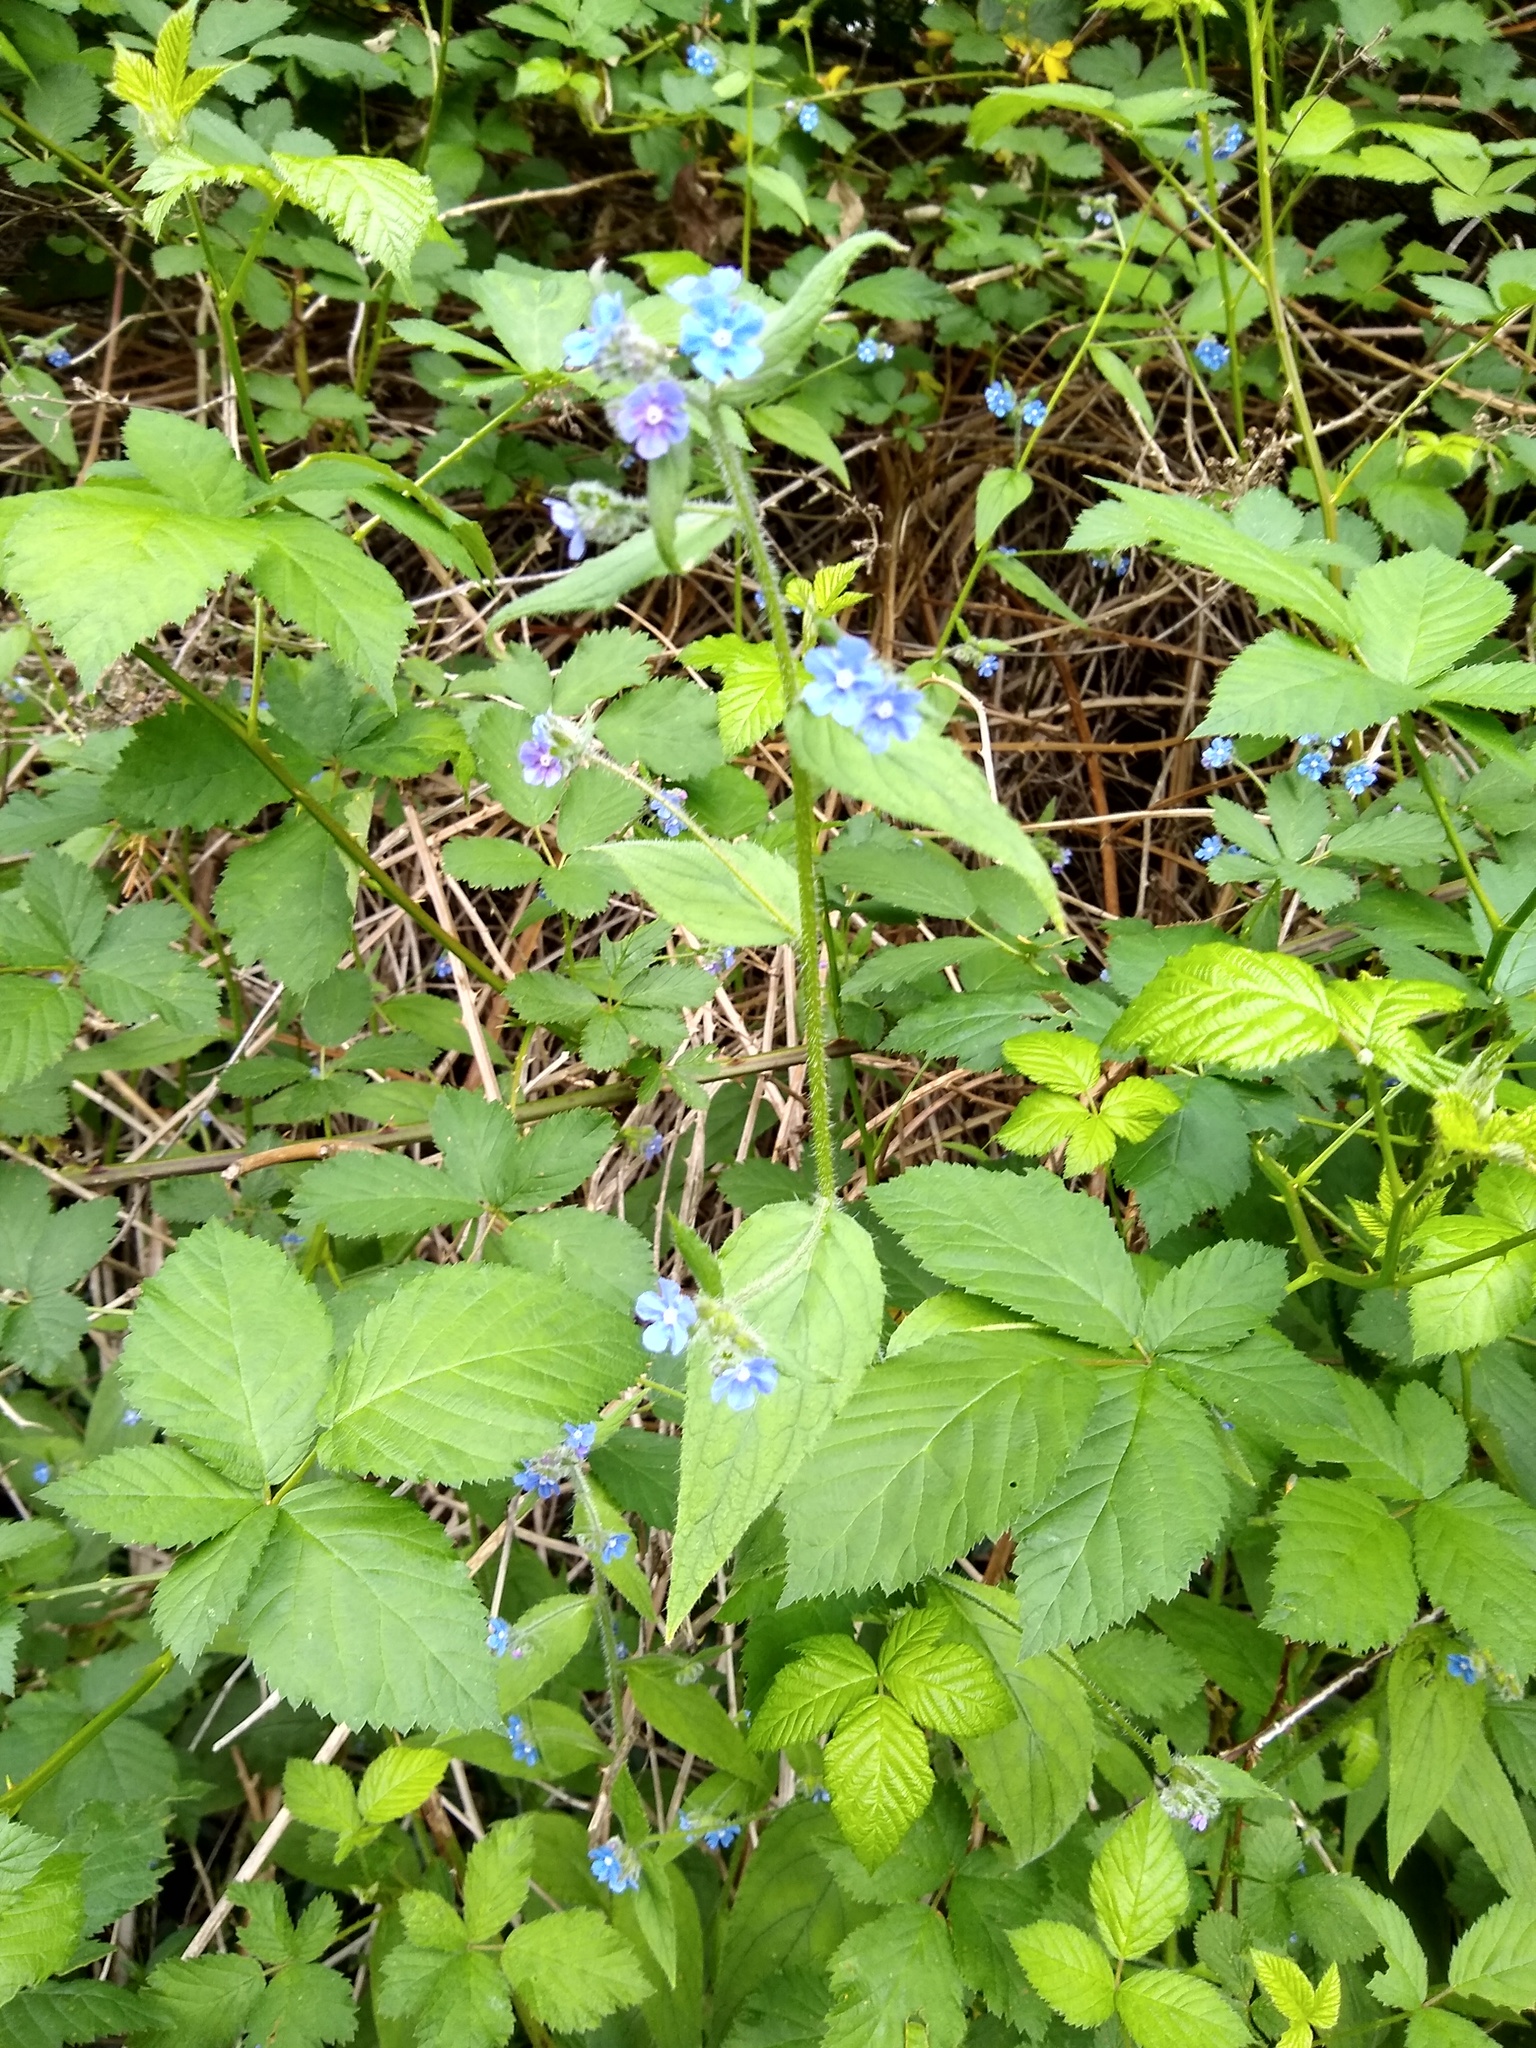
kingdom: Plantae
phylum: Tracheophyta
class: Magnoliopsida
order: Boraginales
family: Boraginaceae
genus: Pentaglottis
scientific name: Pentaglottis sempervirens
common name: Green alkanet
